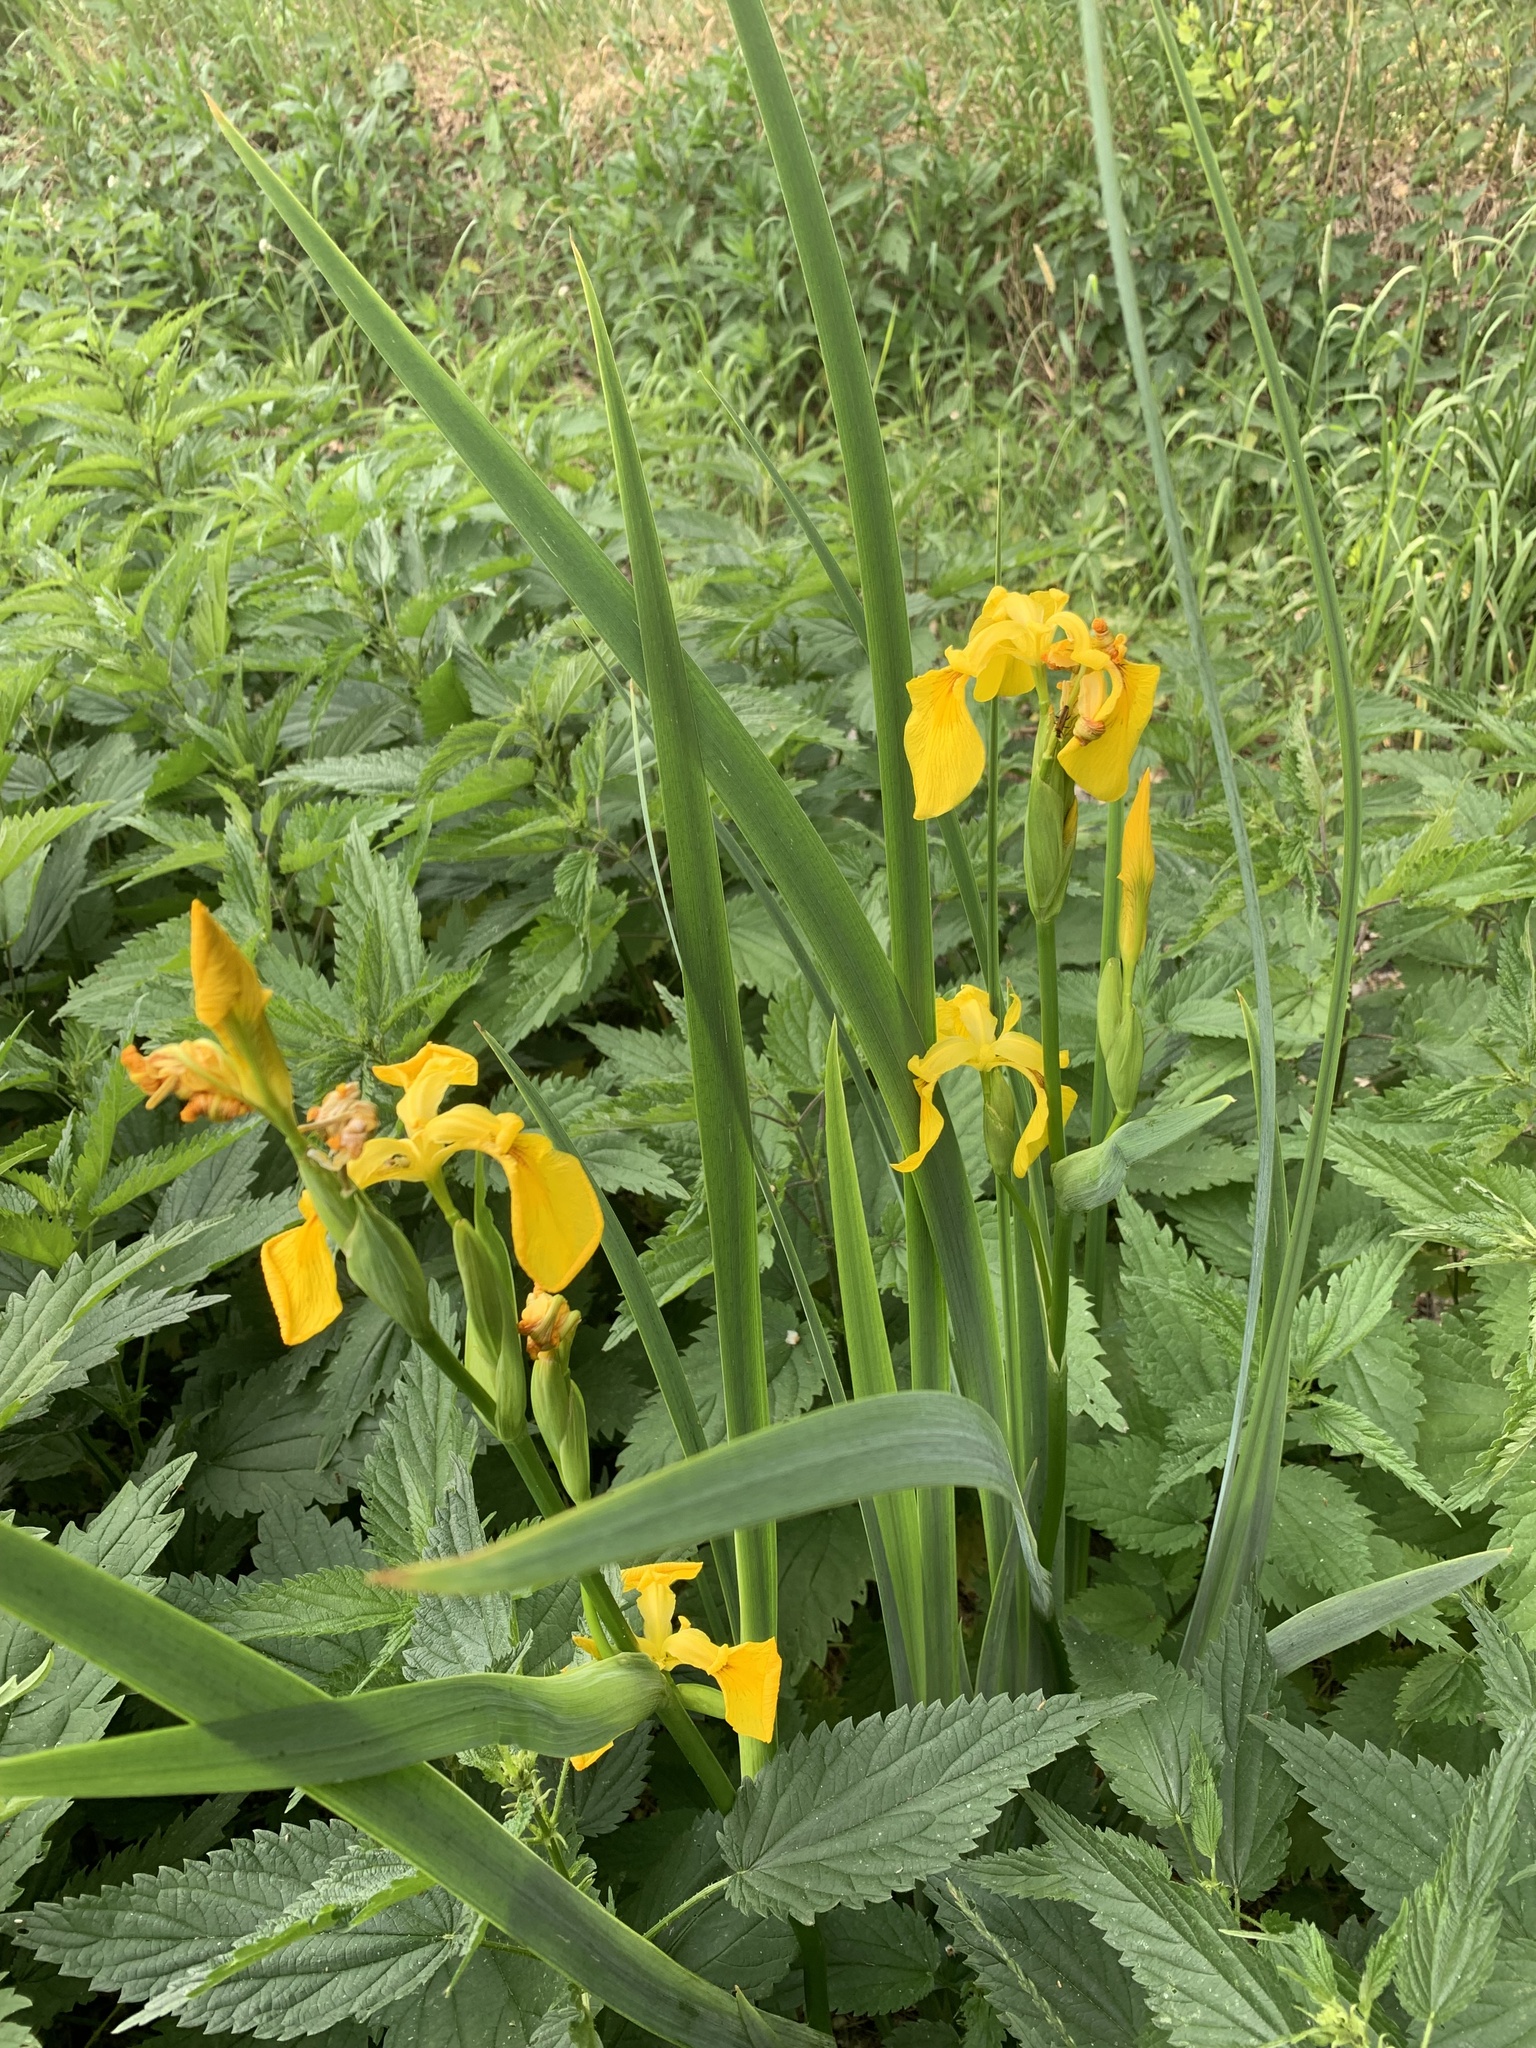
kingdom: Plantae
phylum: Tracheophyta
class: Liliopsida
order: Asparagales
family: Iridaceae
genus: Iris
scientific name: Iris pseudacorus
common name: Yellow flag
